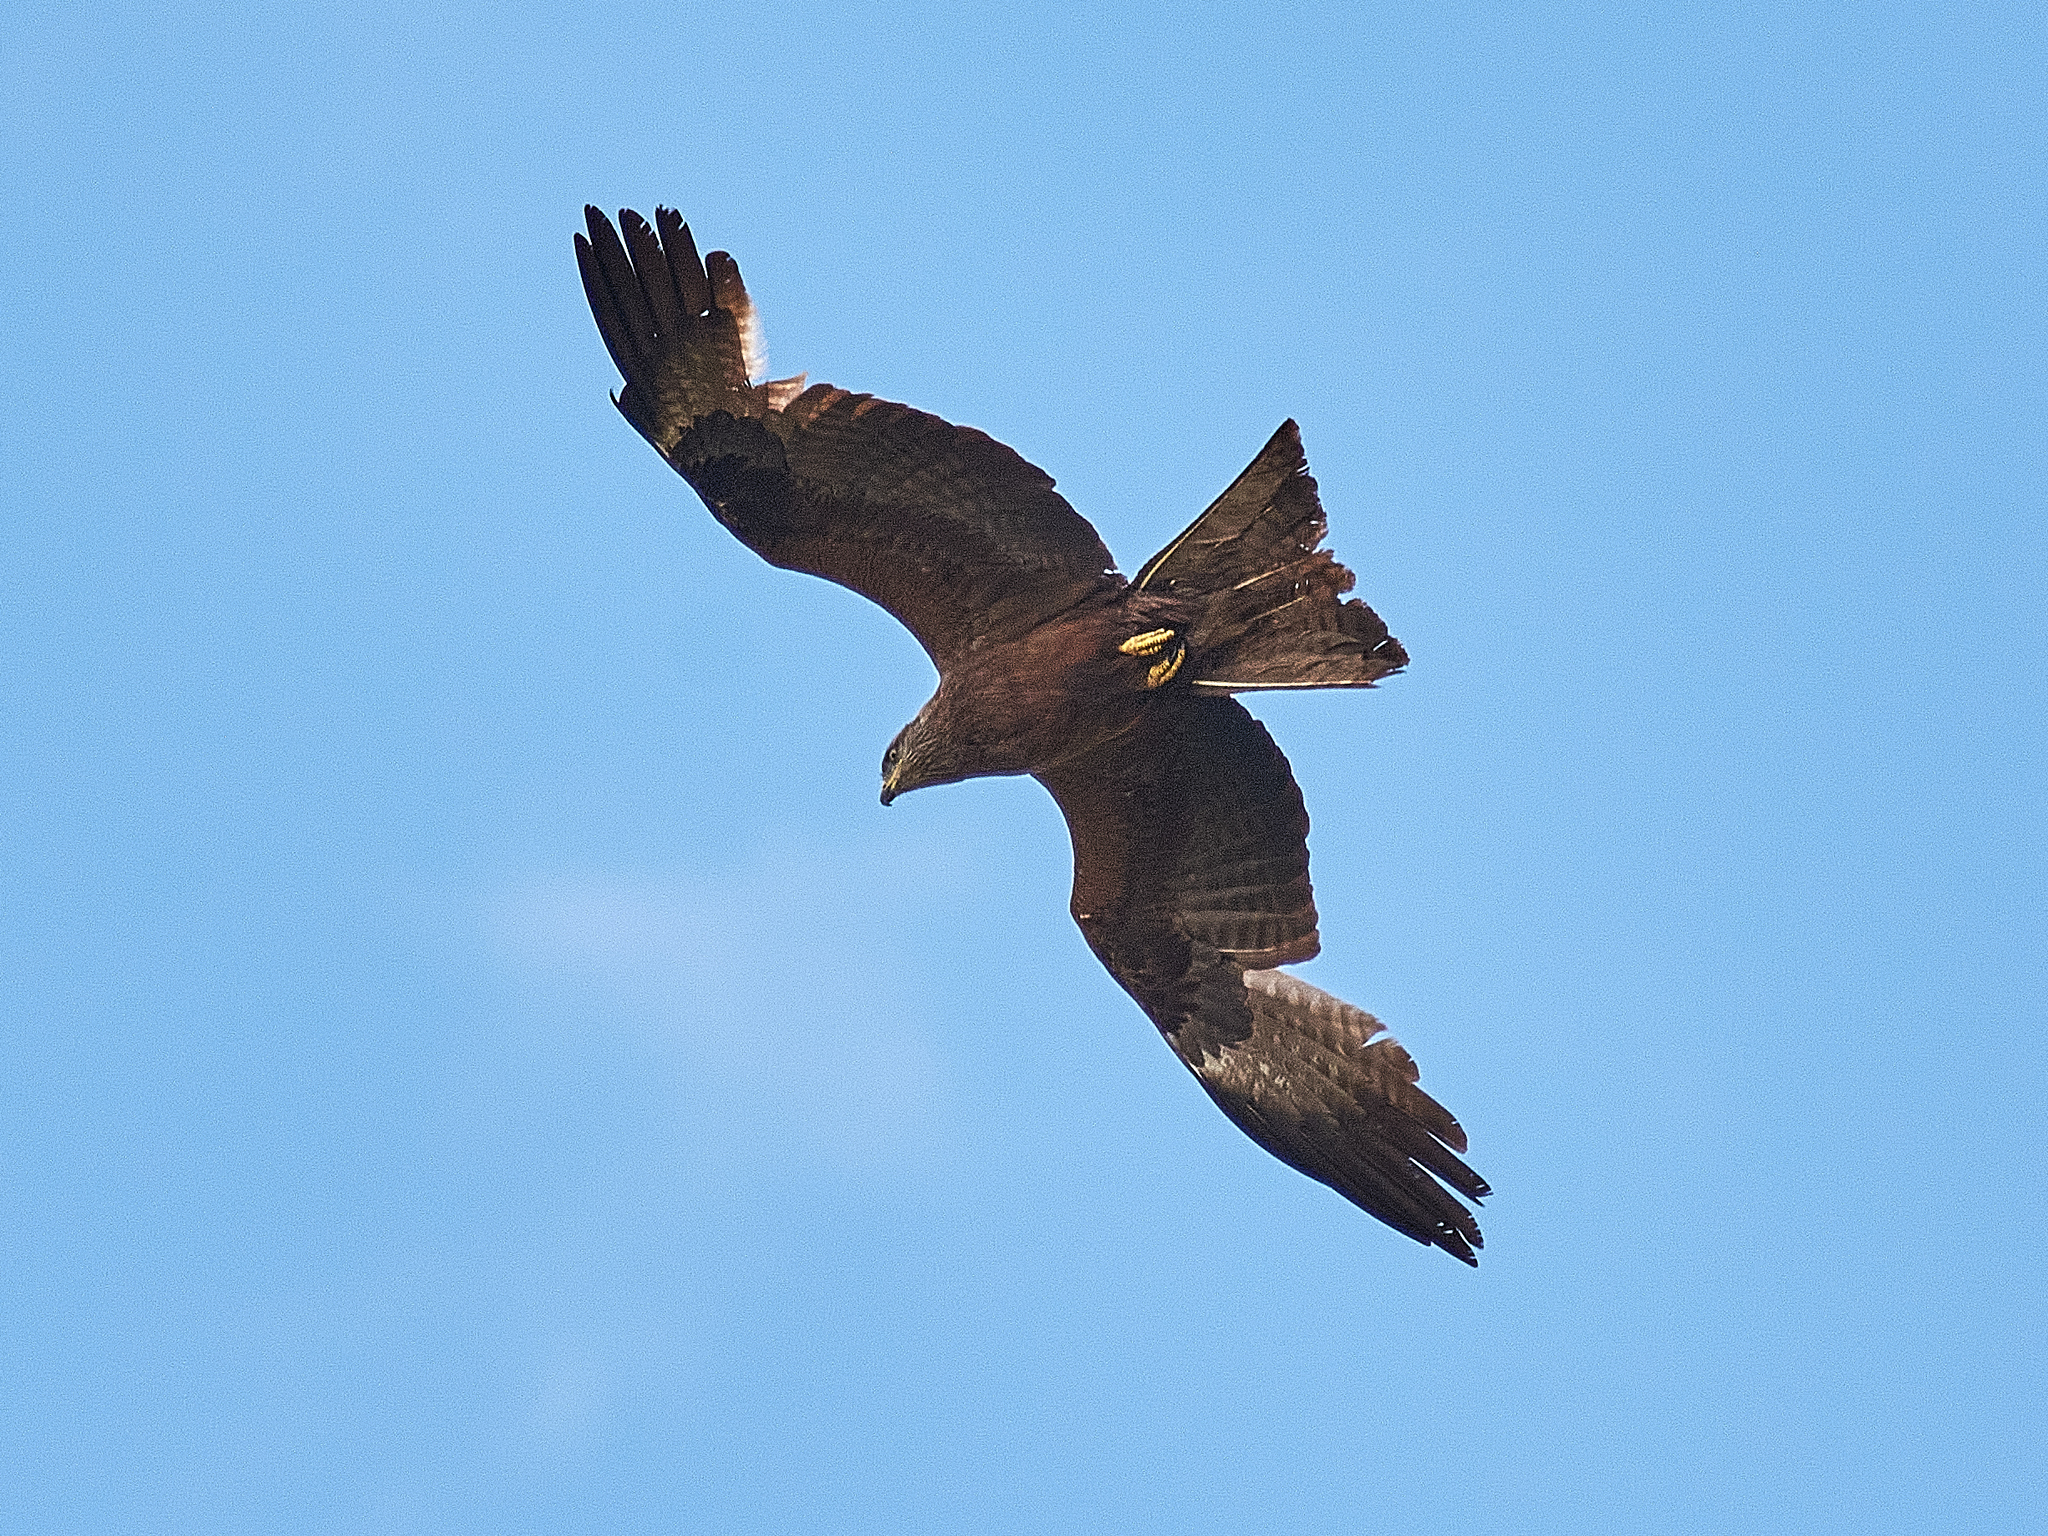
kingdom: Animalia
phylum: Chordata
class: Aves
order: Accipitriformes
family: Accipitridae
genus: Milvus
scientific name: Milvus migrans
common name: Black kite
